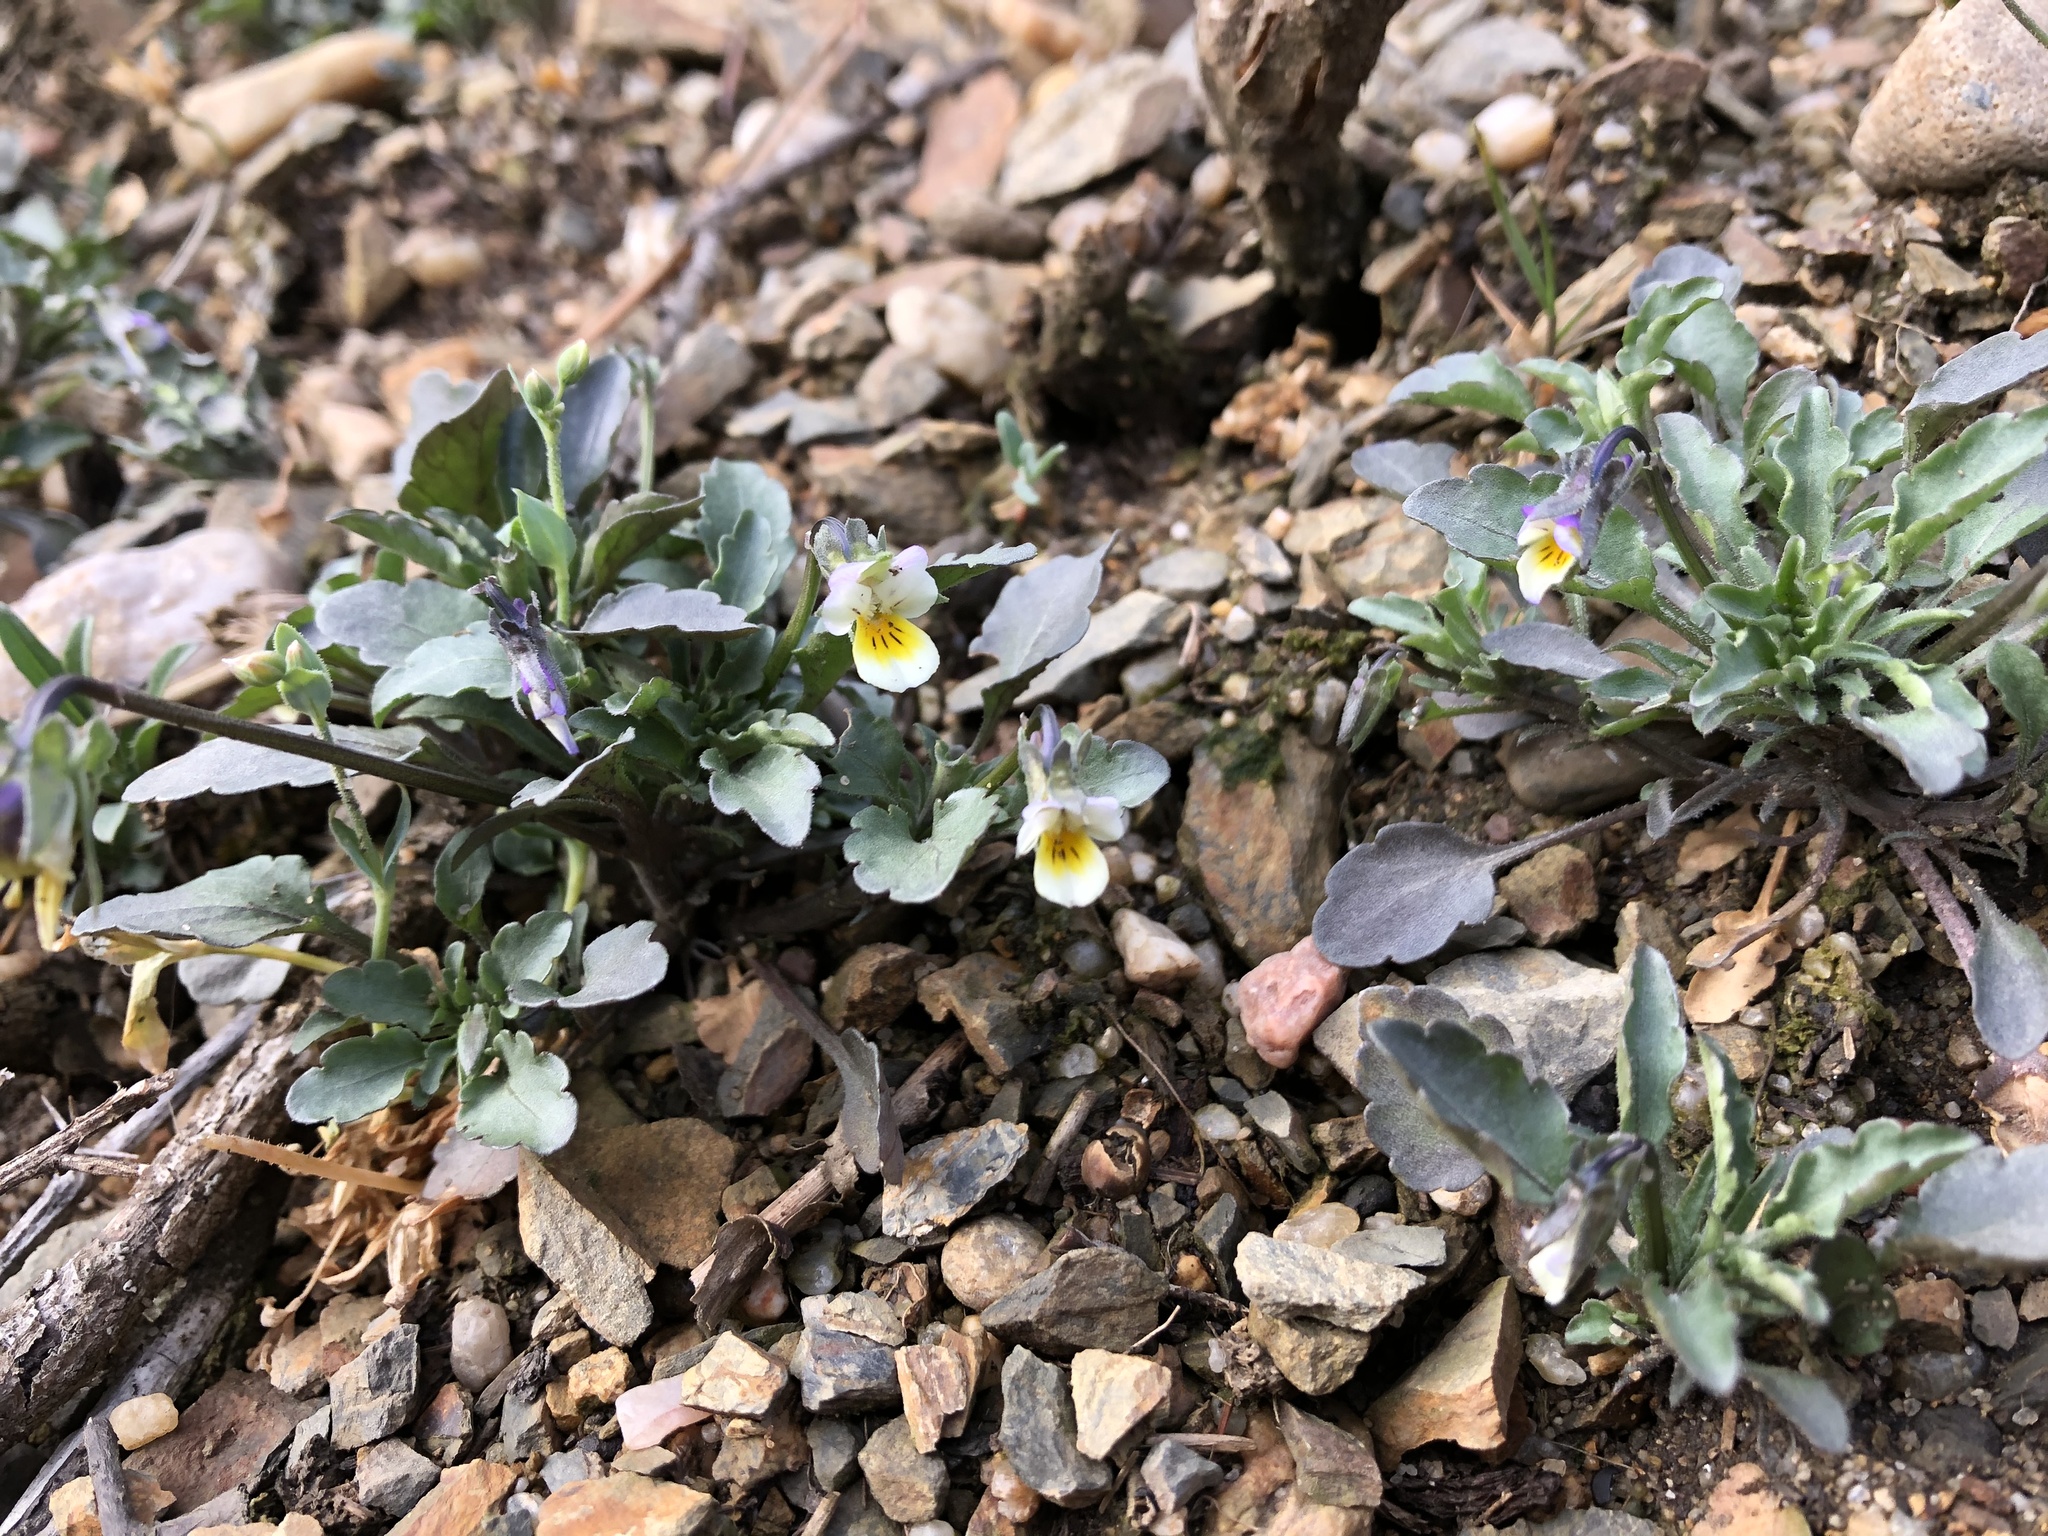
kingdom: Plantae
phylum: Tracheophyta
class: Magnoliopsida
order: Malpighiales
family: Violaceae
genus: Viola
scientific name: Viola arvensis
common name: Field pansy
